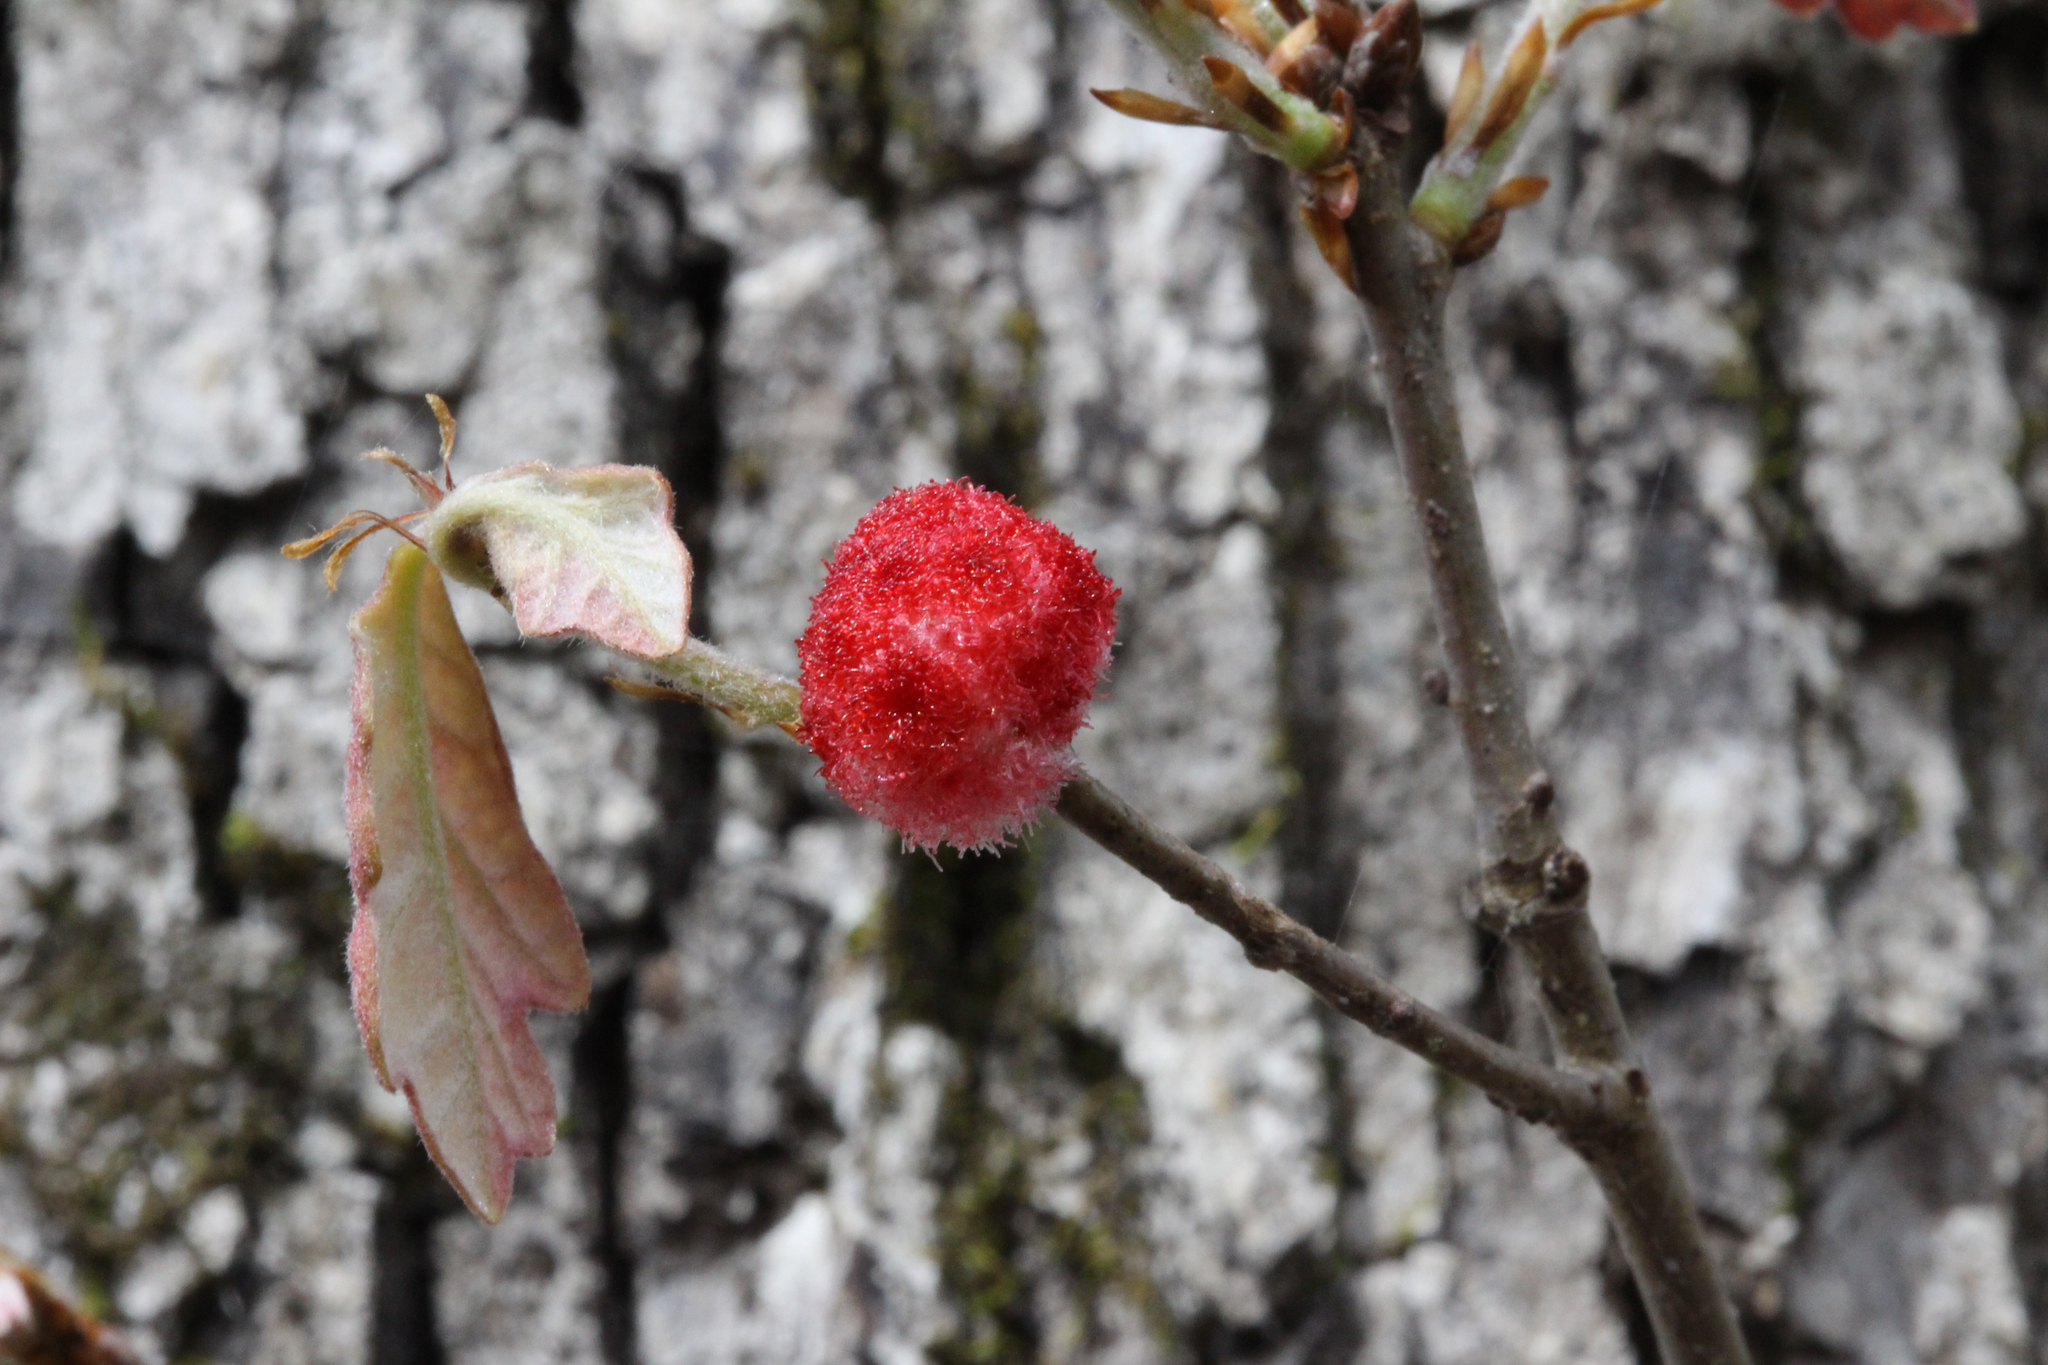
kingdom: Animalia
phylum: Arthropoda
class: Insecta
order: Hymenoptera
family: Cynipidae
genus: Callirhytis
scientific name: Callirhytis
